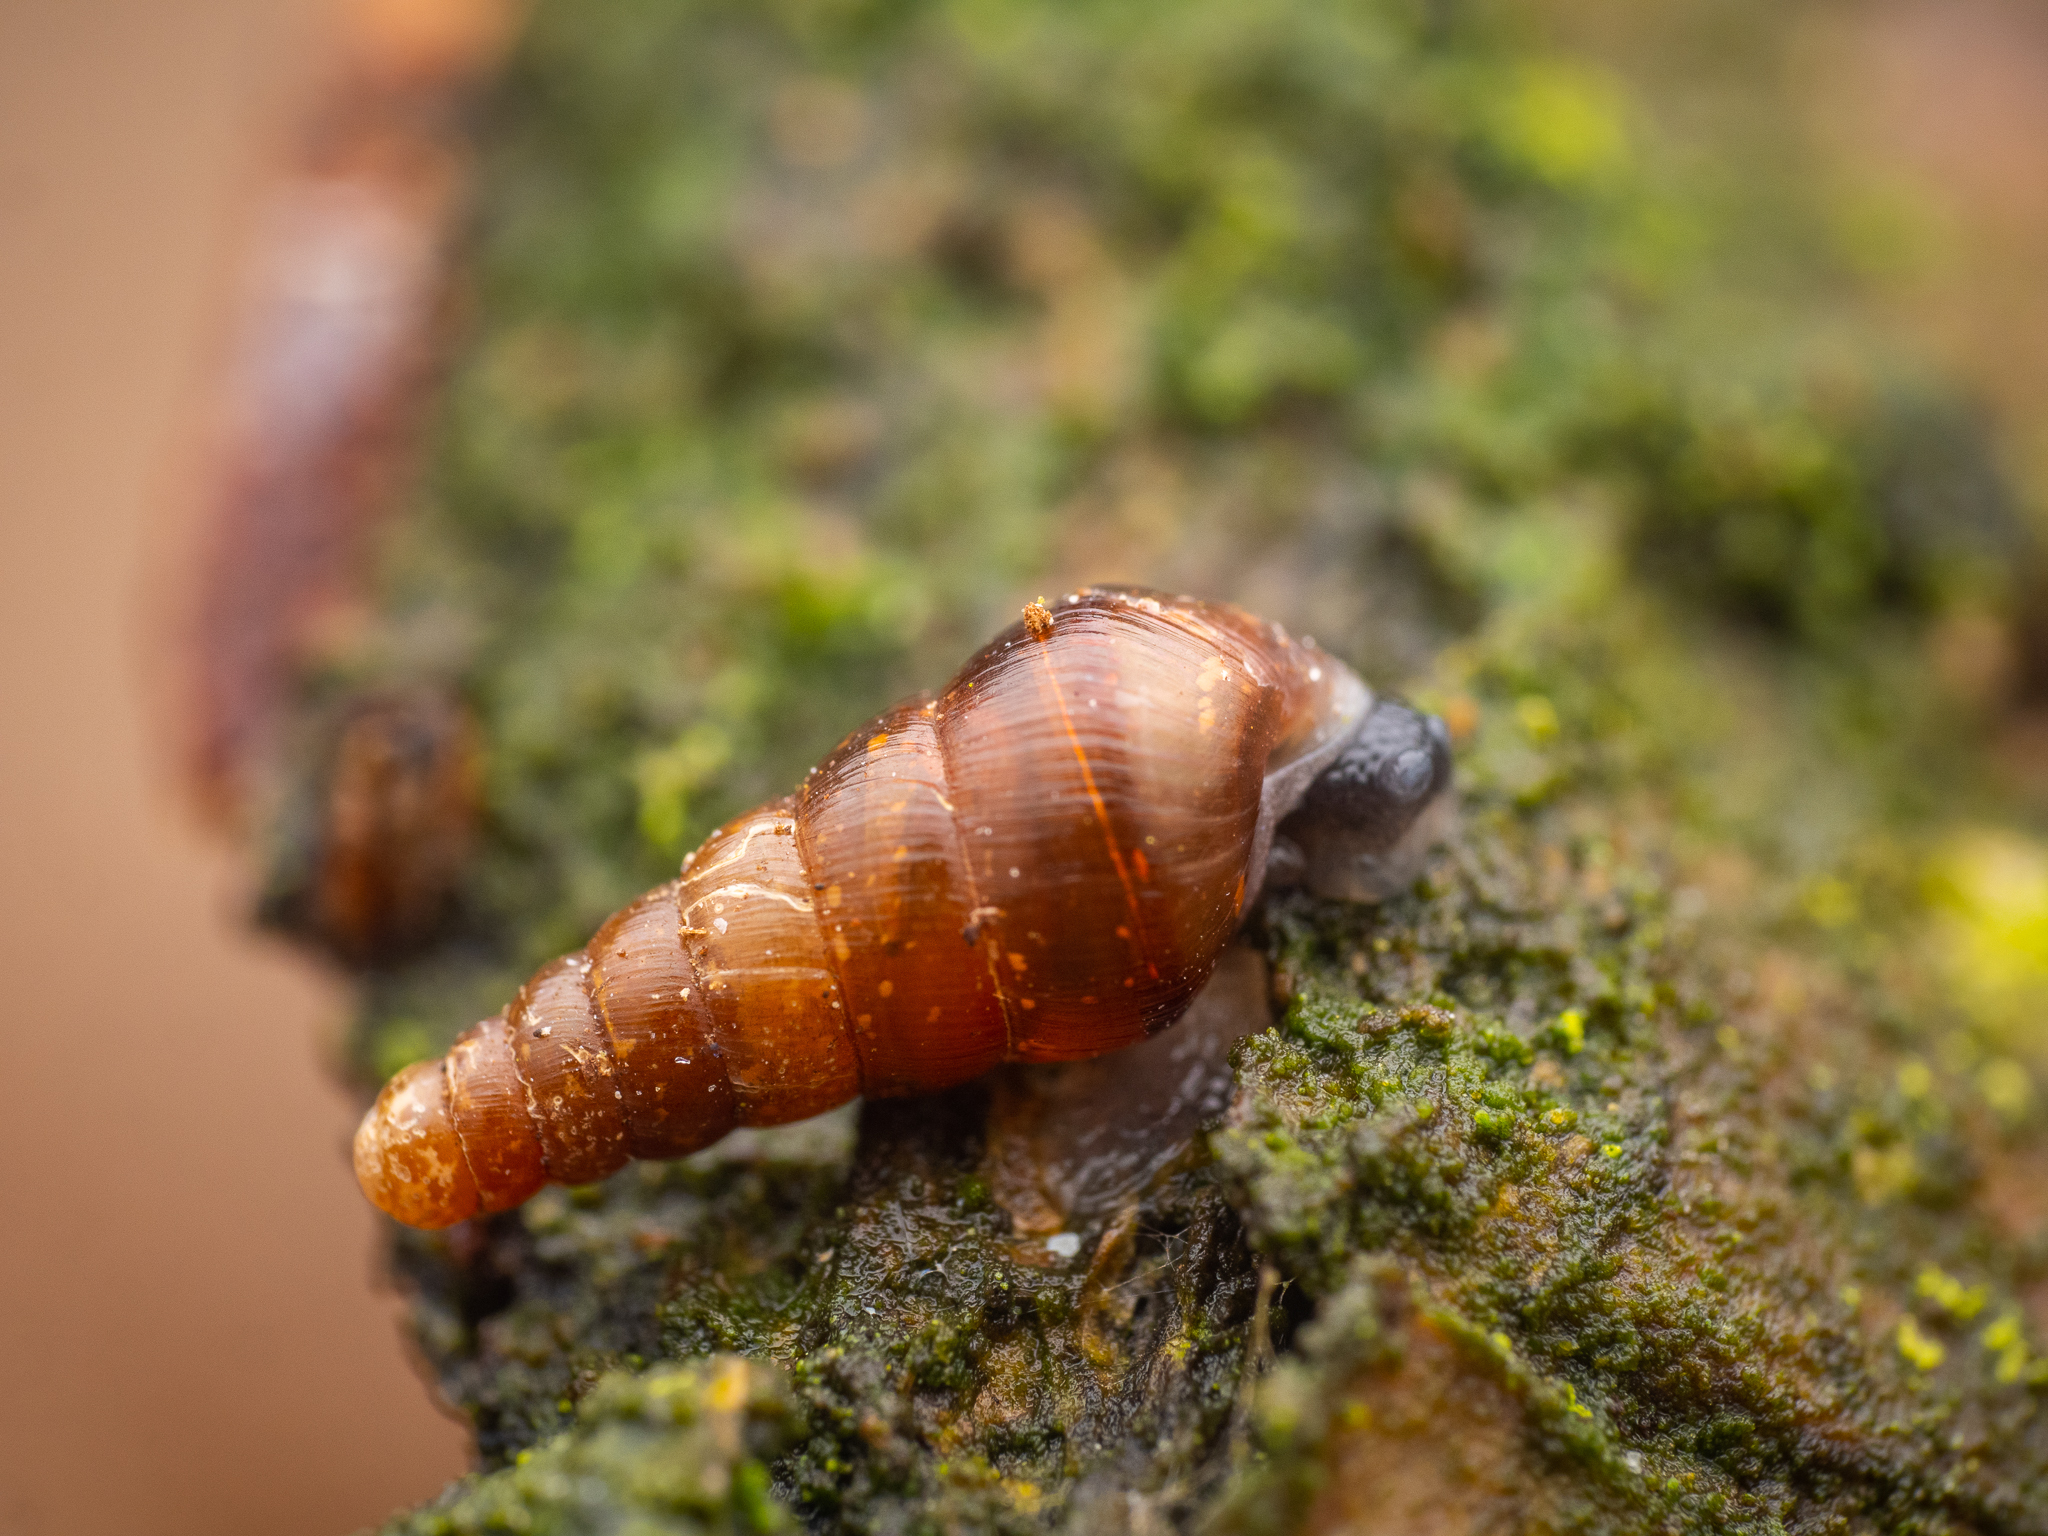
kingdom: Animalia
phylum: Mollusca
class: Gastropoda
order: Stylommatophora
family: Clausiliidae
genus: Cochlodina
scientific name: Cochlodina laminata
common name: Plaited door snail
